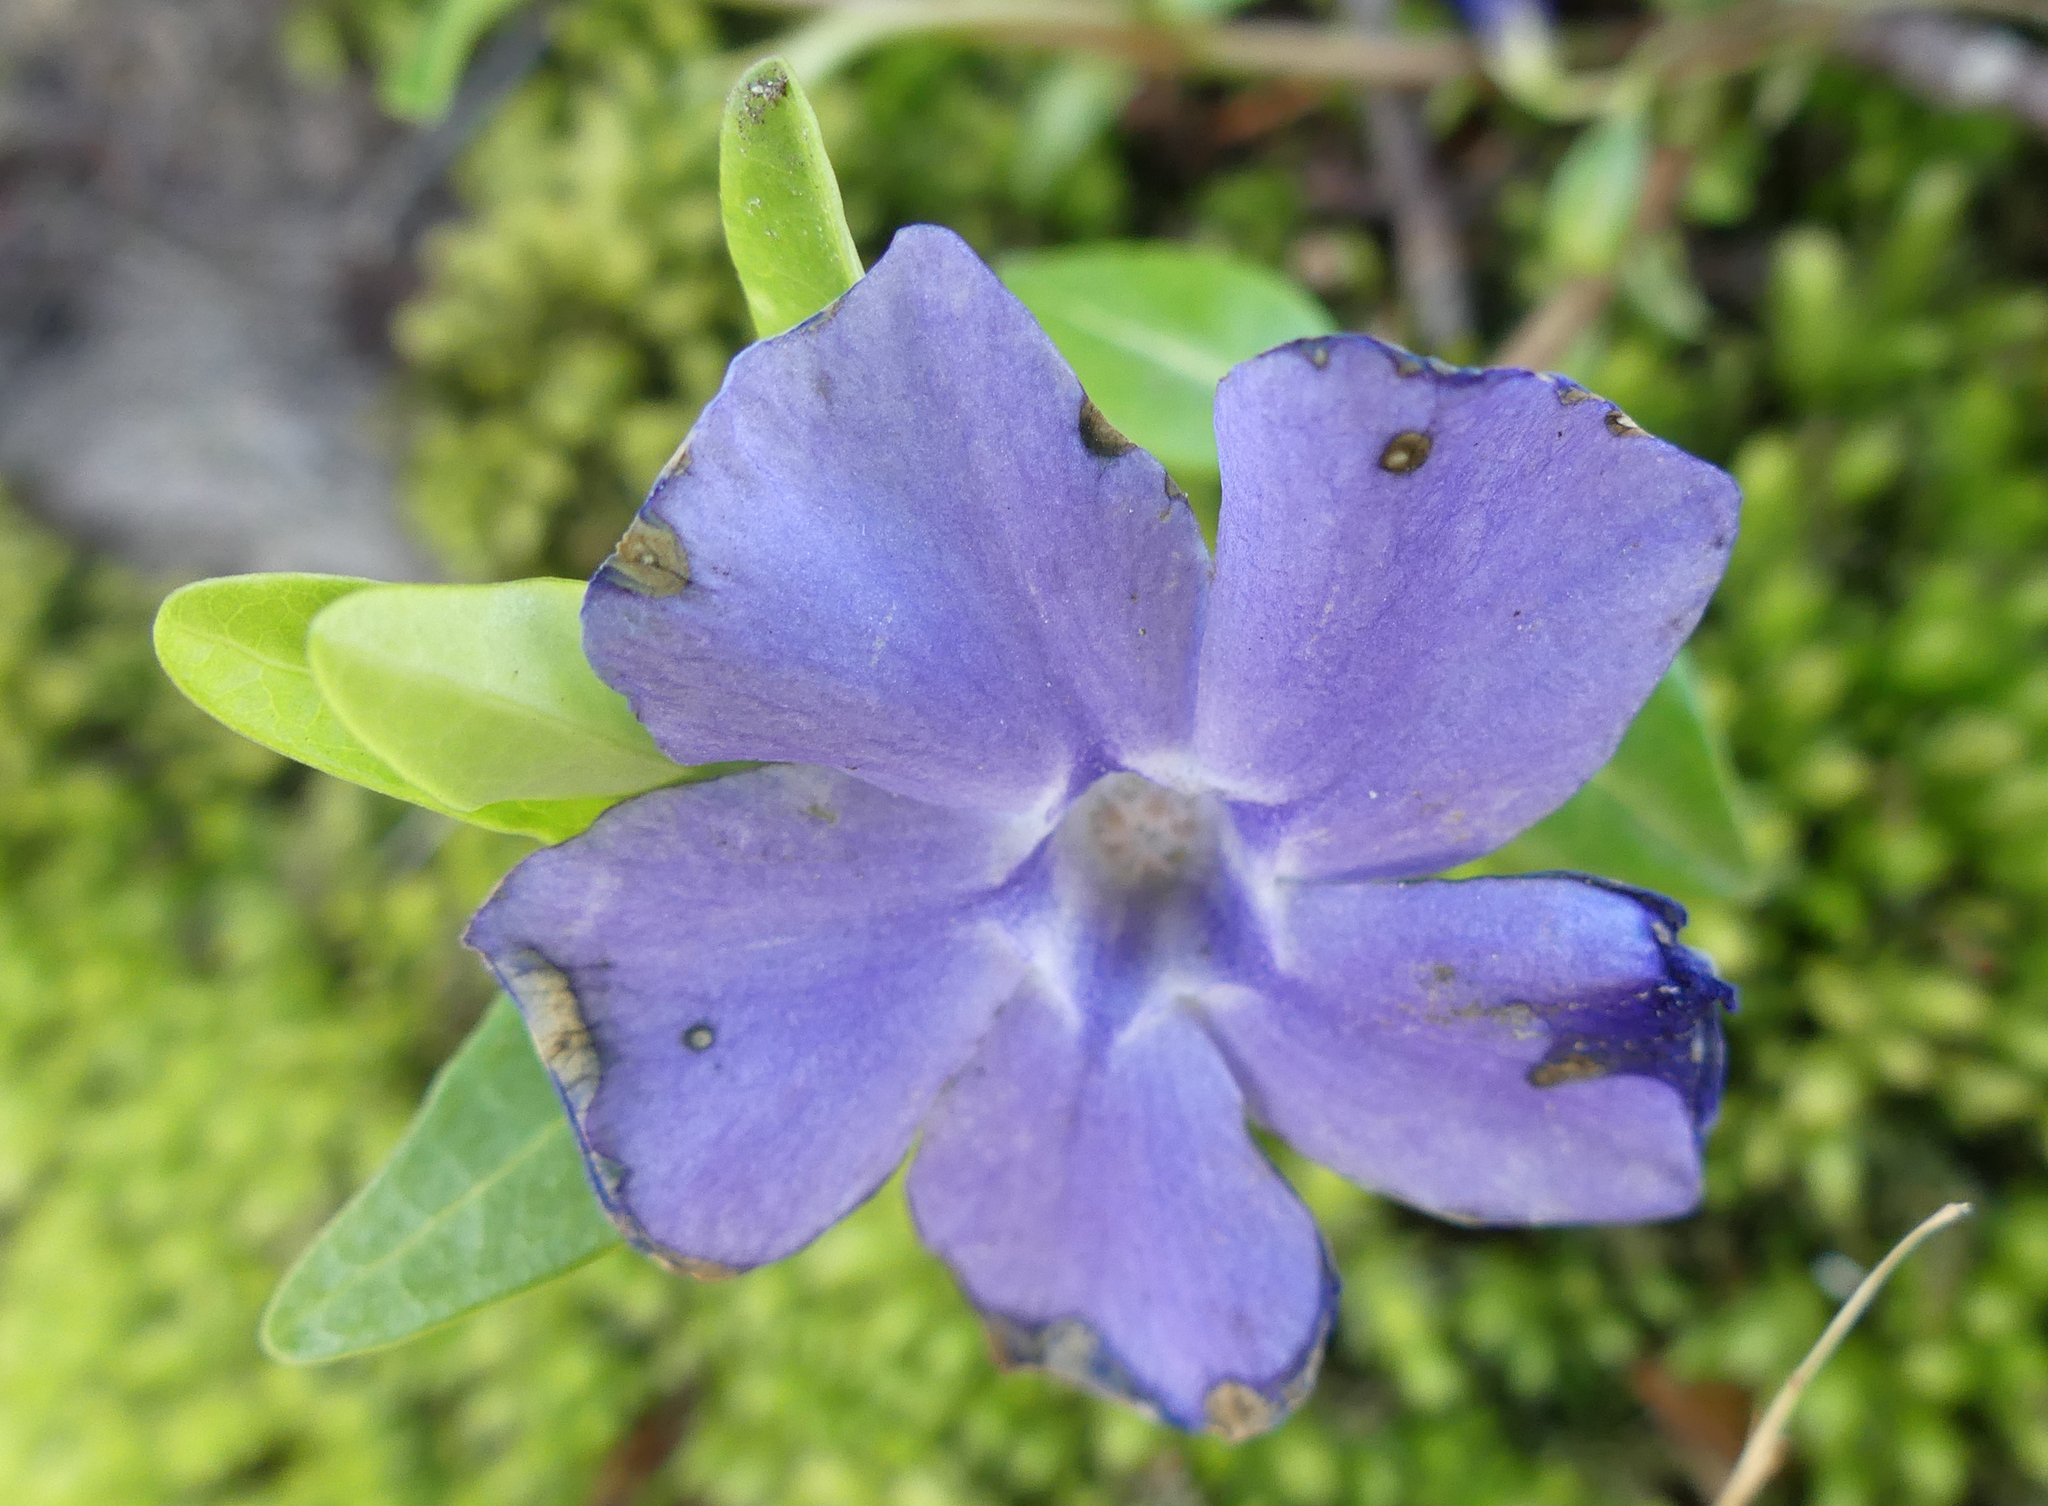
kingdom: Plantae
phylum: Tracheophyta
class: Magnoliopsida
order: Gentianales
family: Apocynaceae
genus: Vinca
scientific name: Vinca minor
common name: Lesser periwinkle
